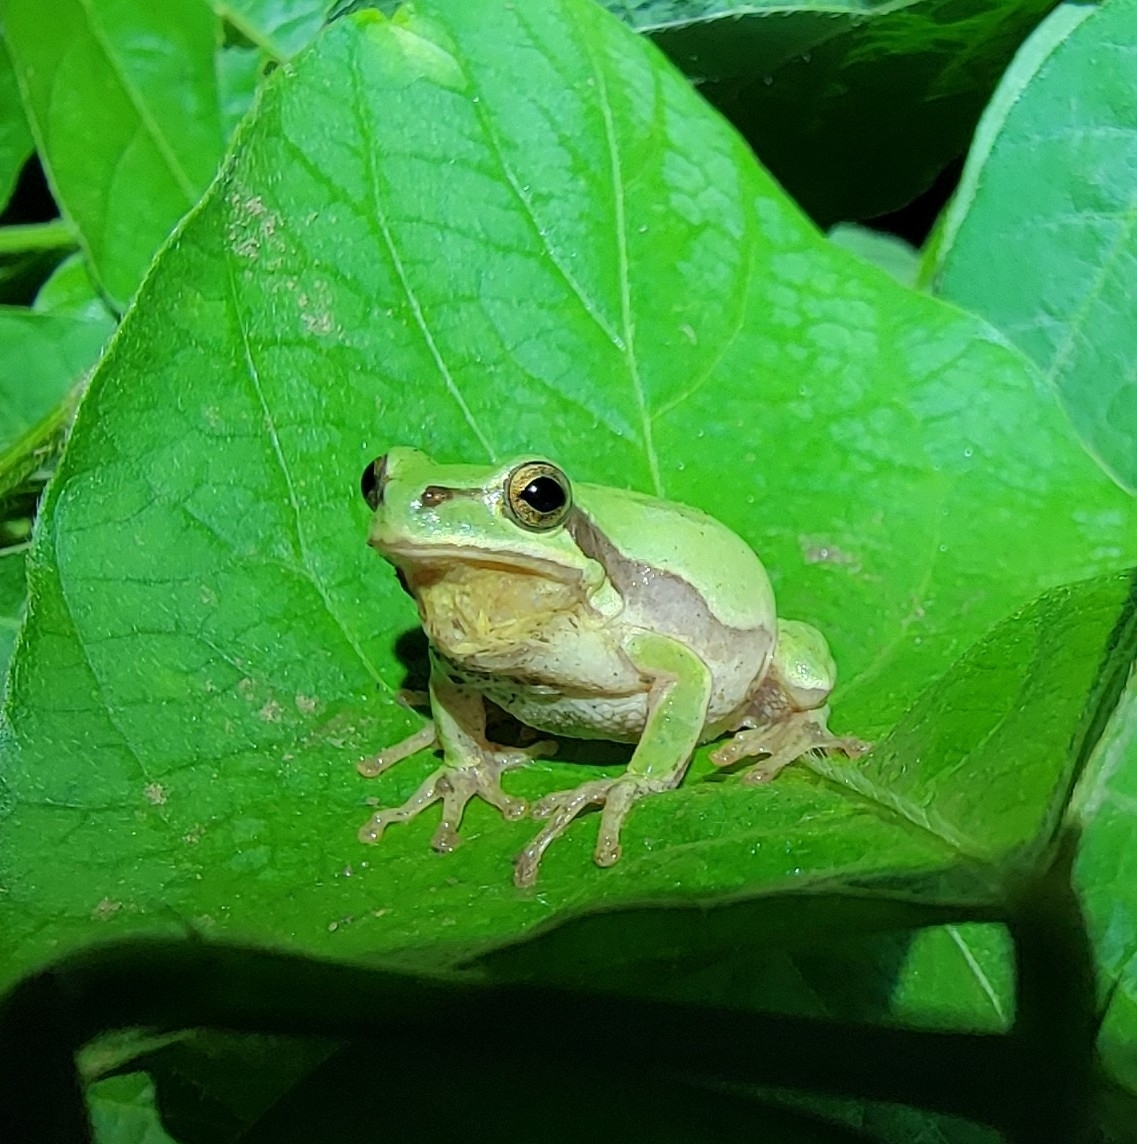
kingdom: Animalia
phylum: Chordata
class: Amphibia
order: Anura
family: Hylidae
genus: Dryophytes
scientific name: Dryophytes immaculatus
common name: North china treefrog
